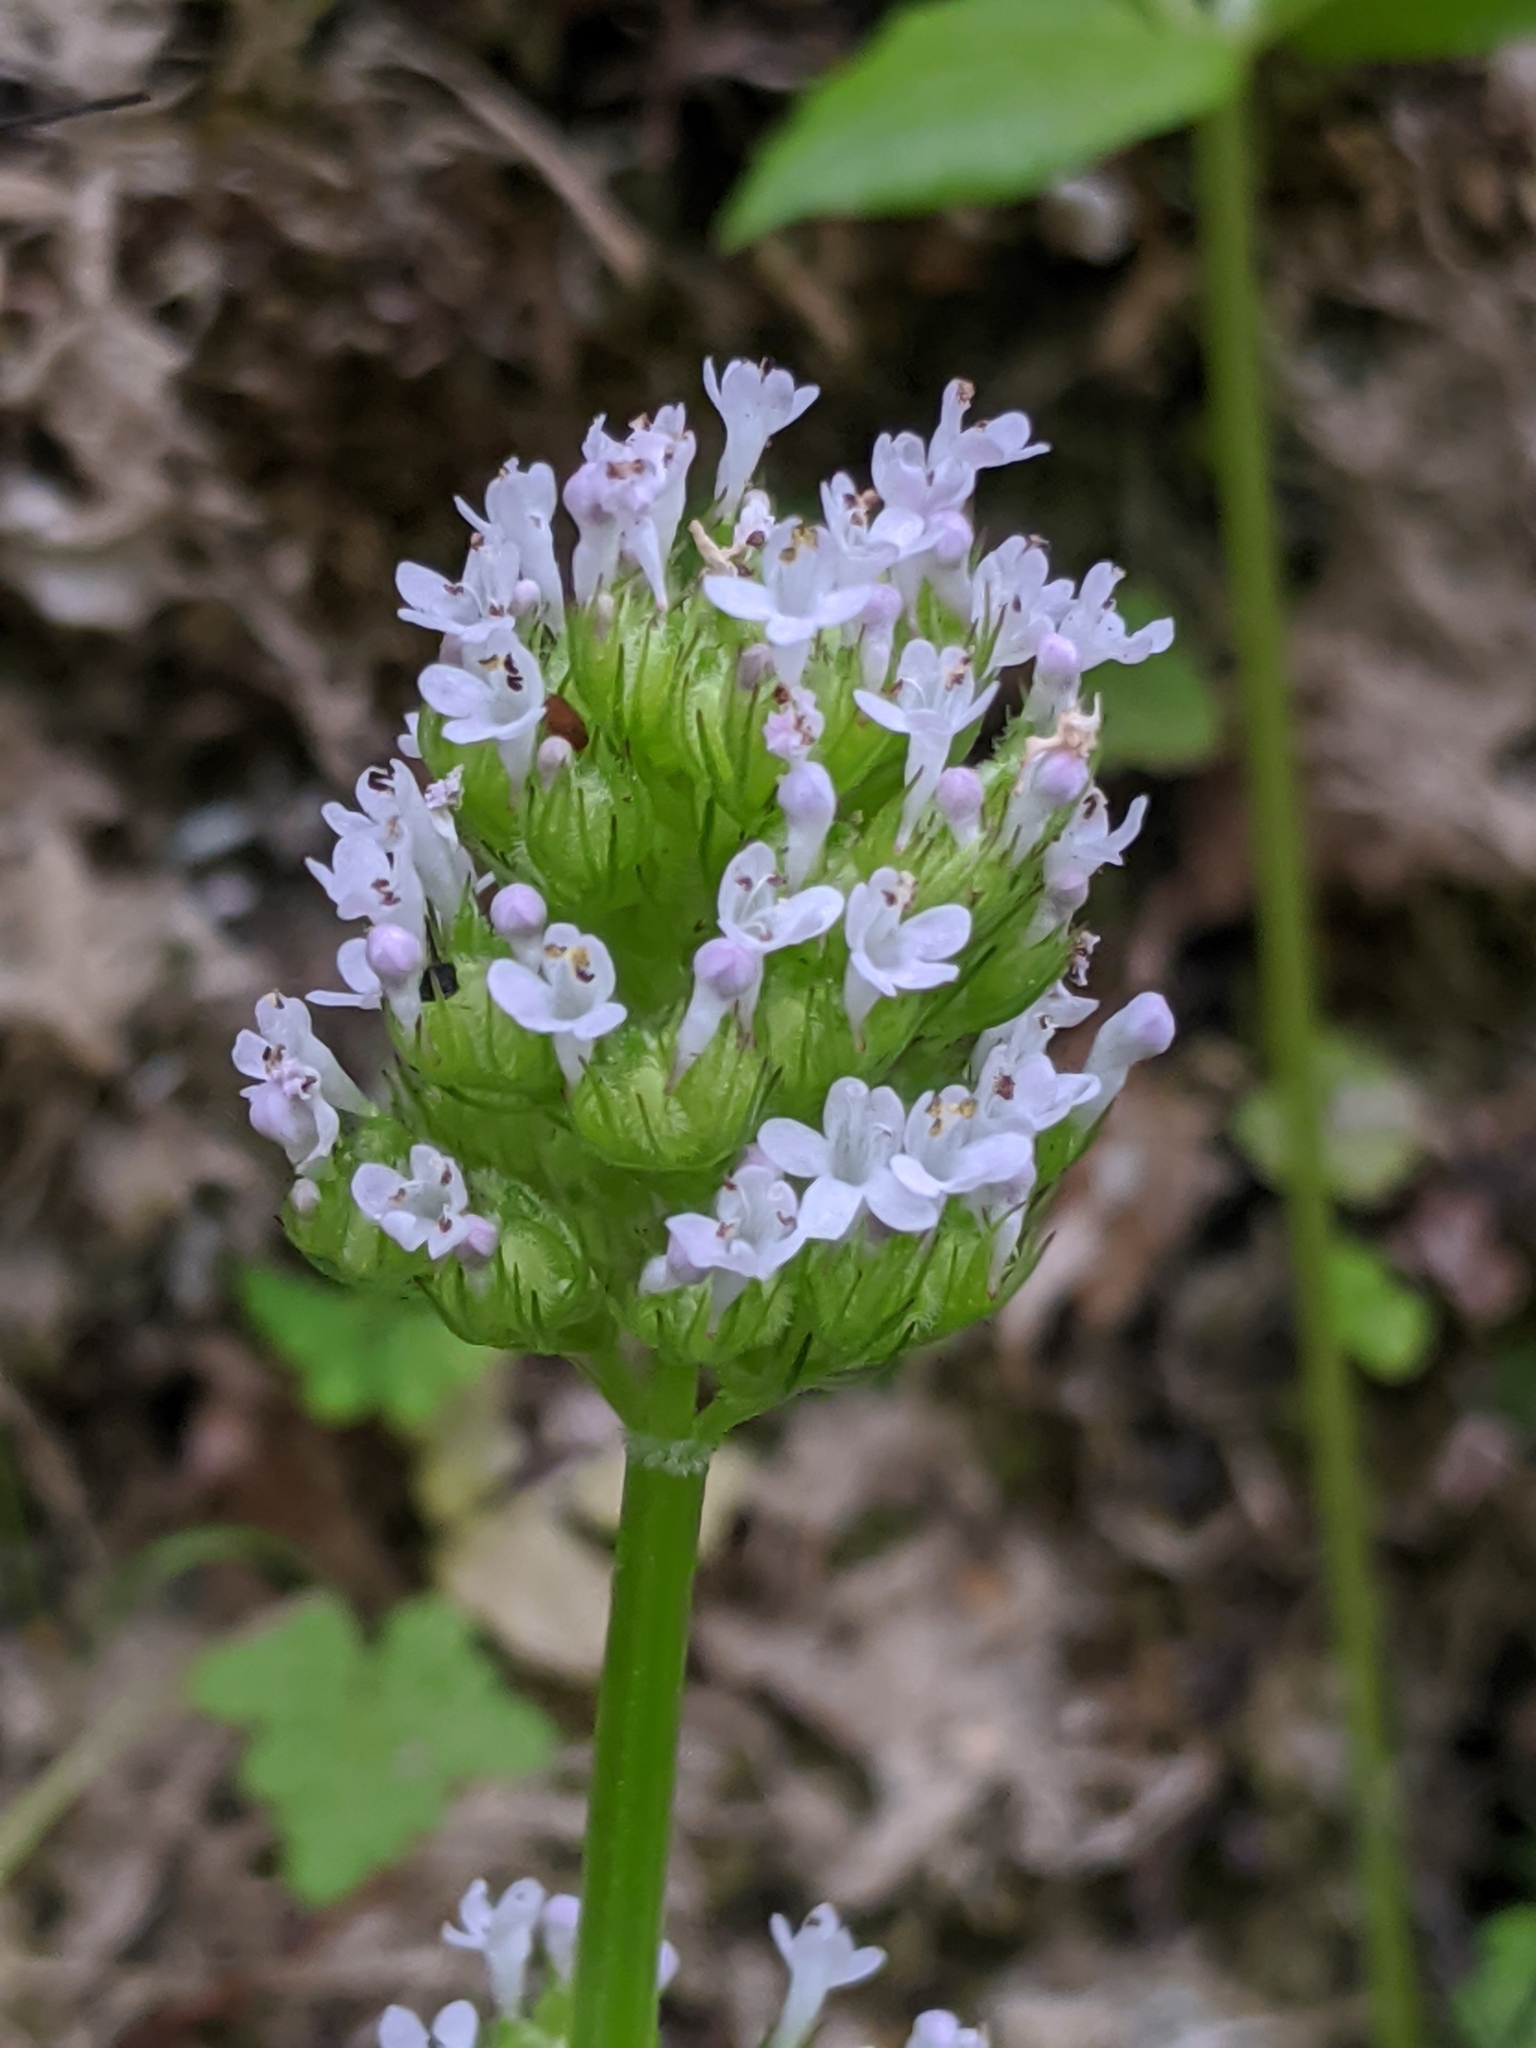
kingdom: Plantae
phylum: Tracheophyta
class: Magnoliopsida
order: Dipsacales
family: Caprifoliaceae
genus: Plectritis
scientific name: Plectritis macroptera
